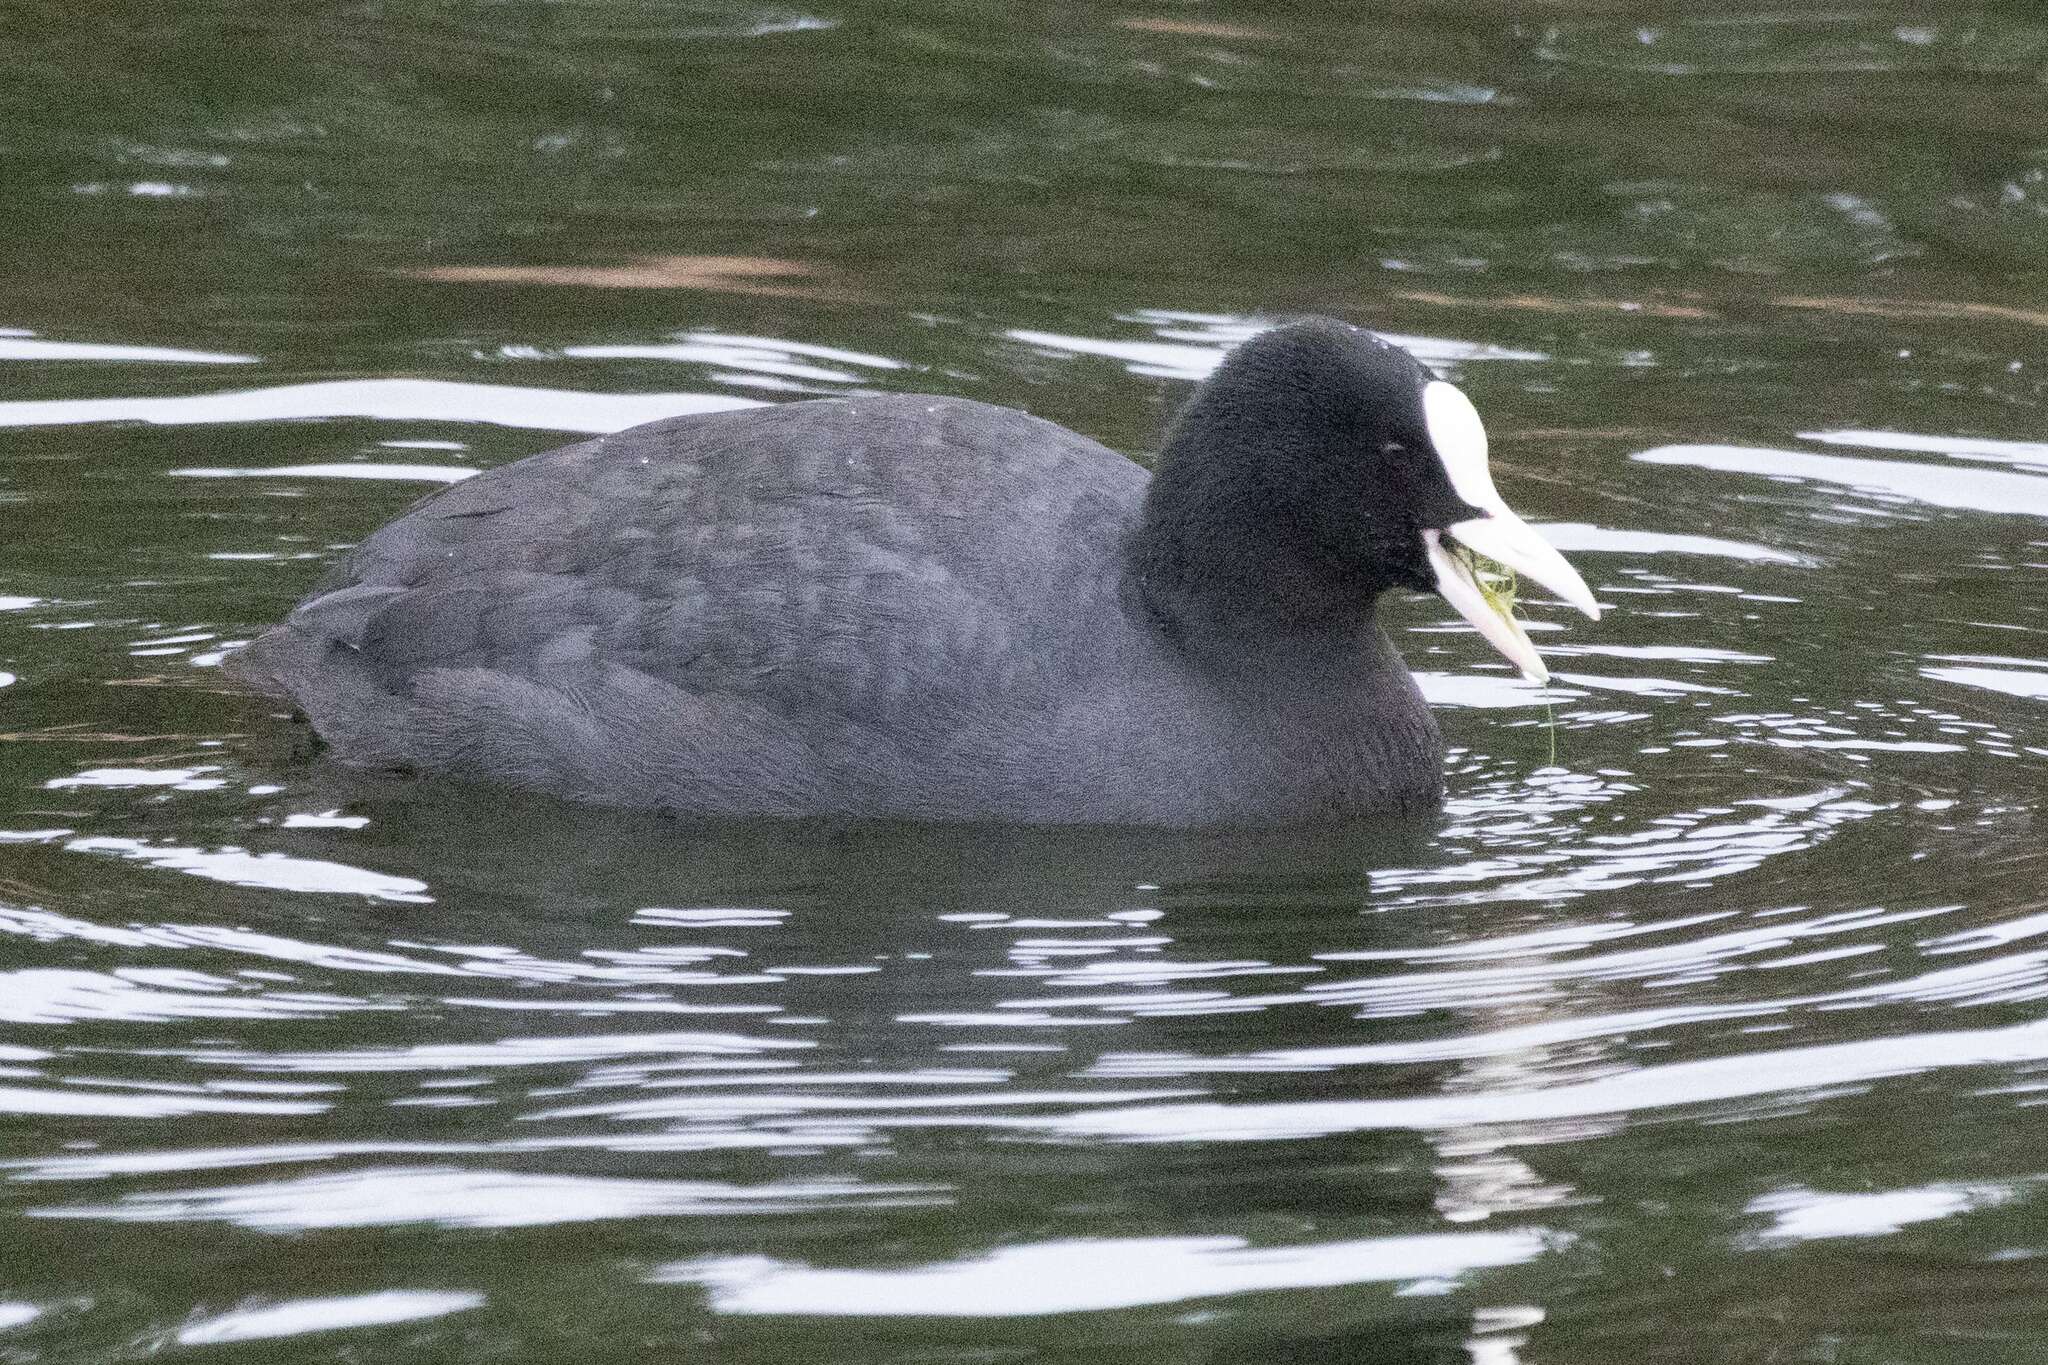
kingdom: Animalia
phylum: Chordata
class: Aves
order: Gruiformes
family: Rallidae
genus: Fulica
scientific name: Fulica atra
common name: Eurasian coot
